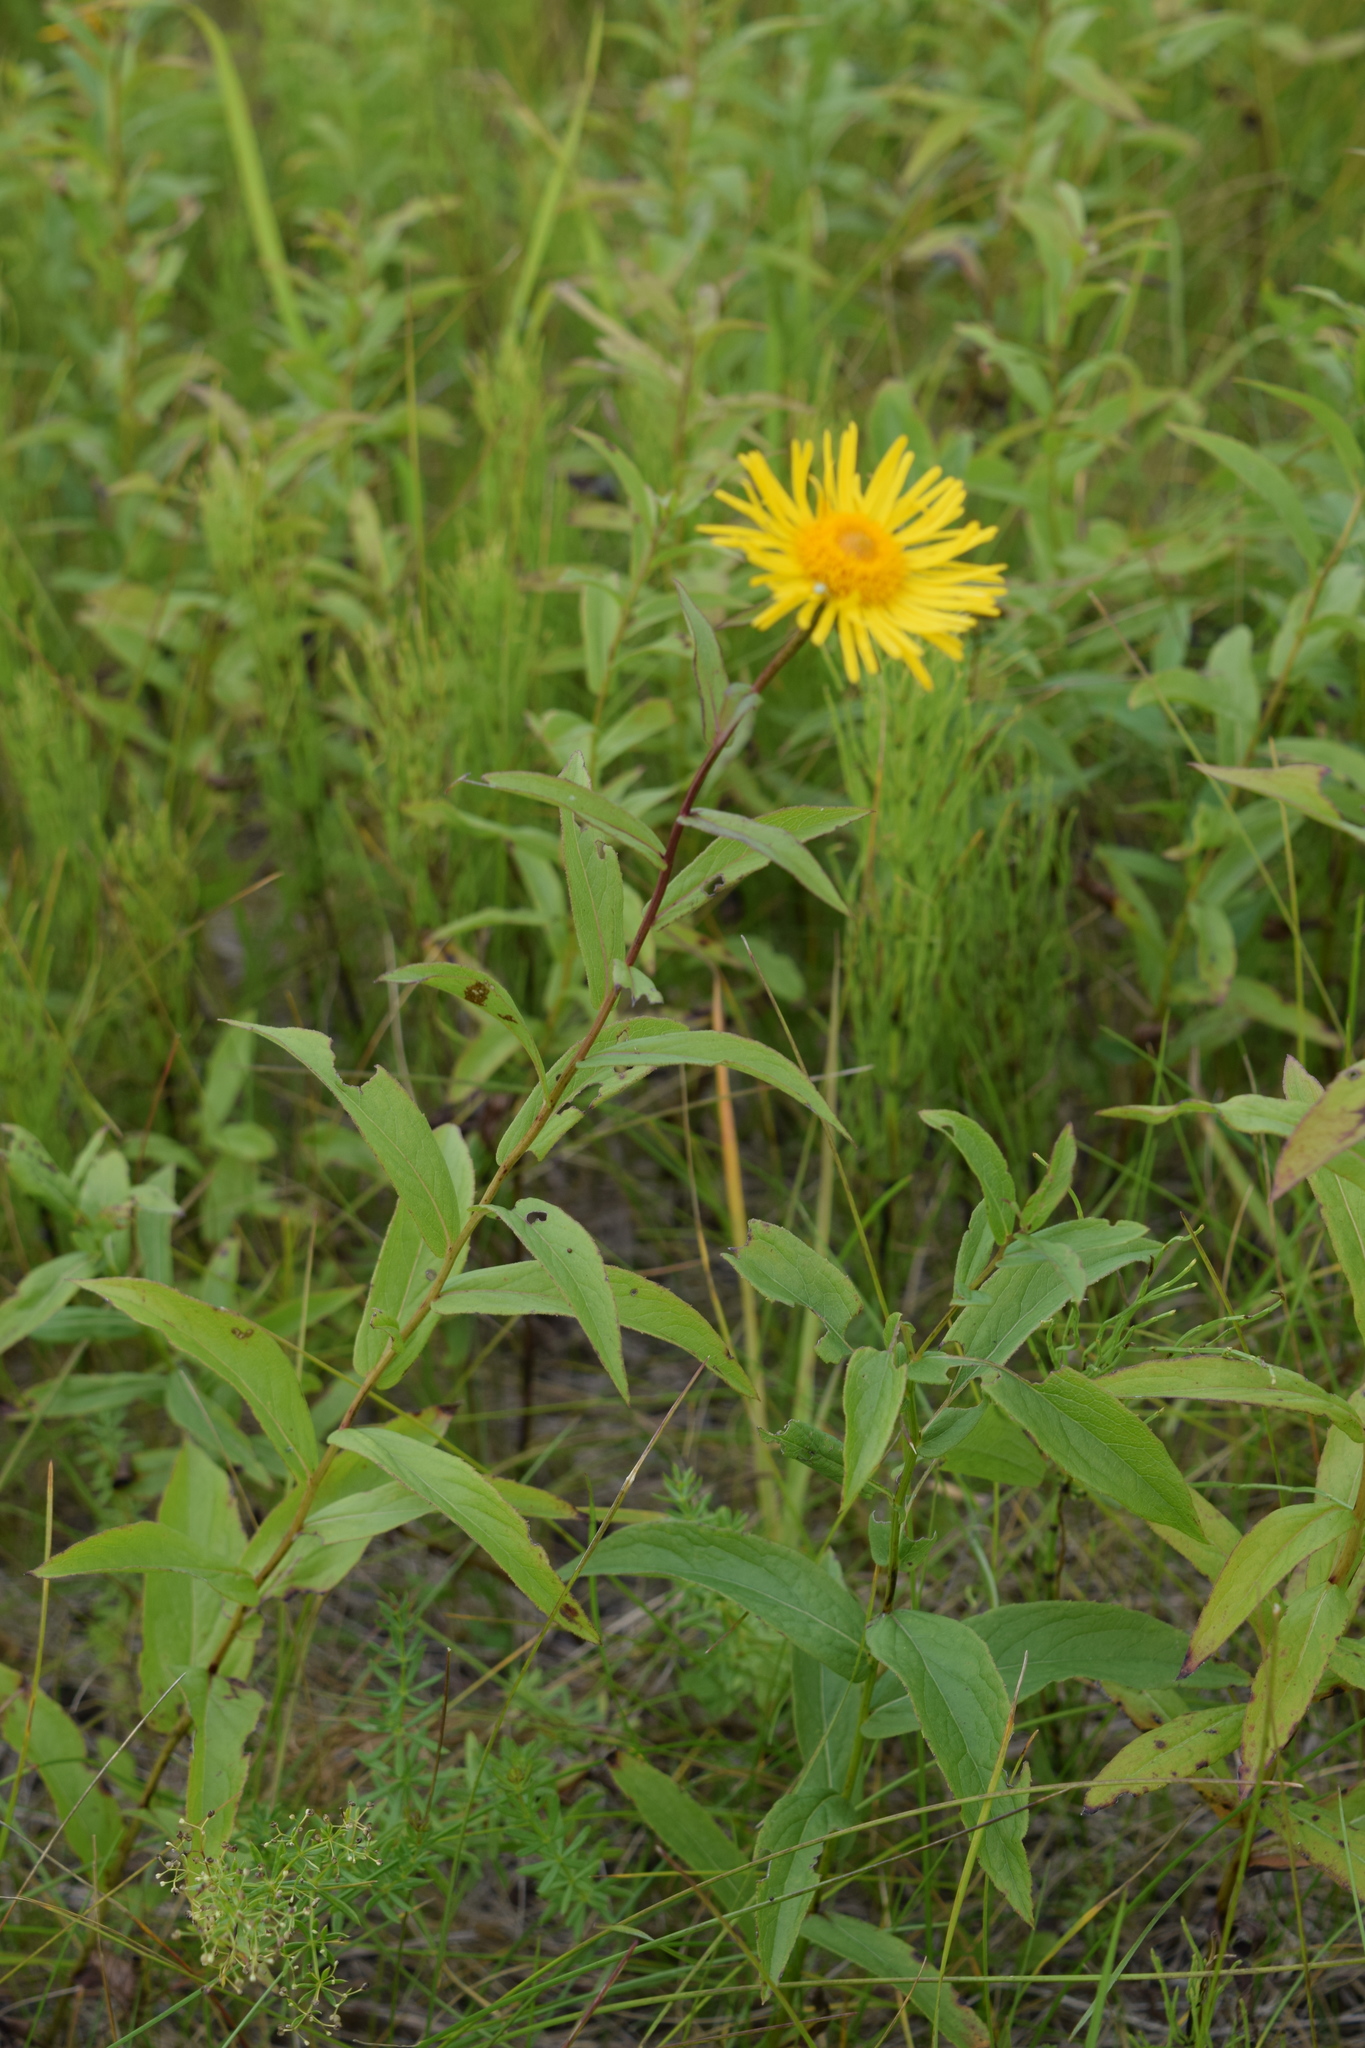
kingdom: Plantae
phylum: Tracheophyta
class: Magnoliopsida
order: Asterales
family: Asteraceae
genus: Pentanema
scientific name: Pentanema salicinum
